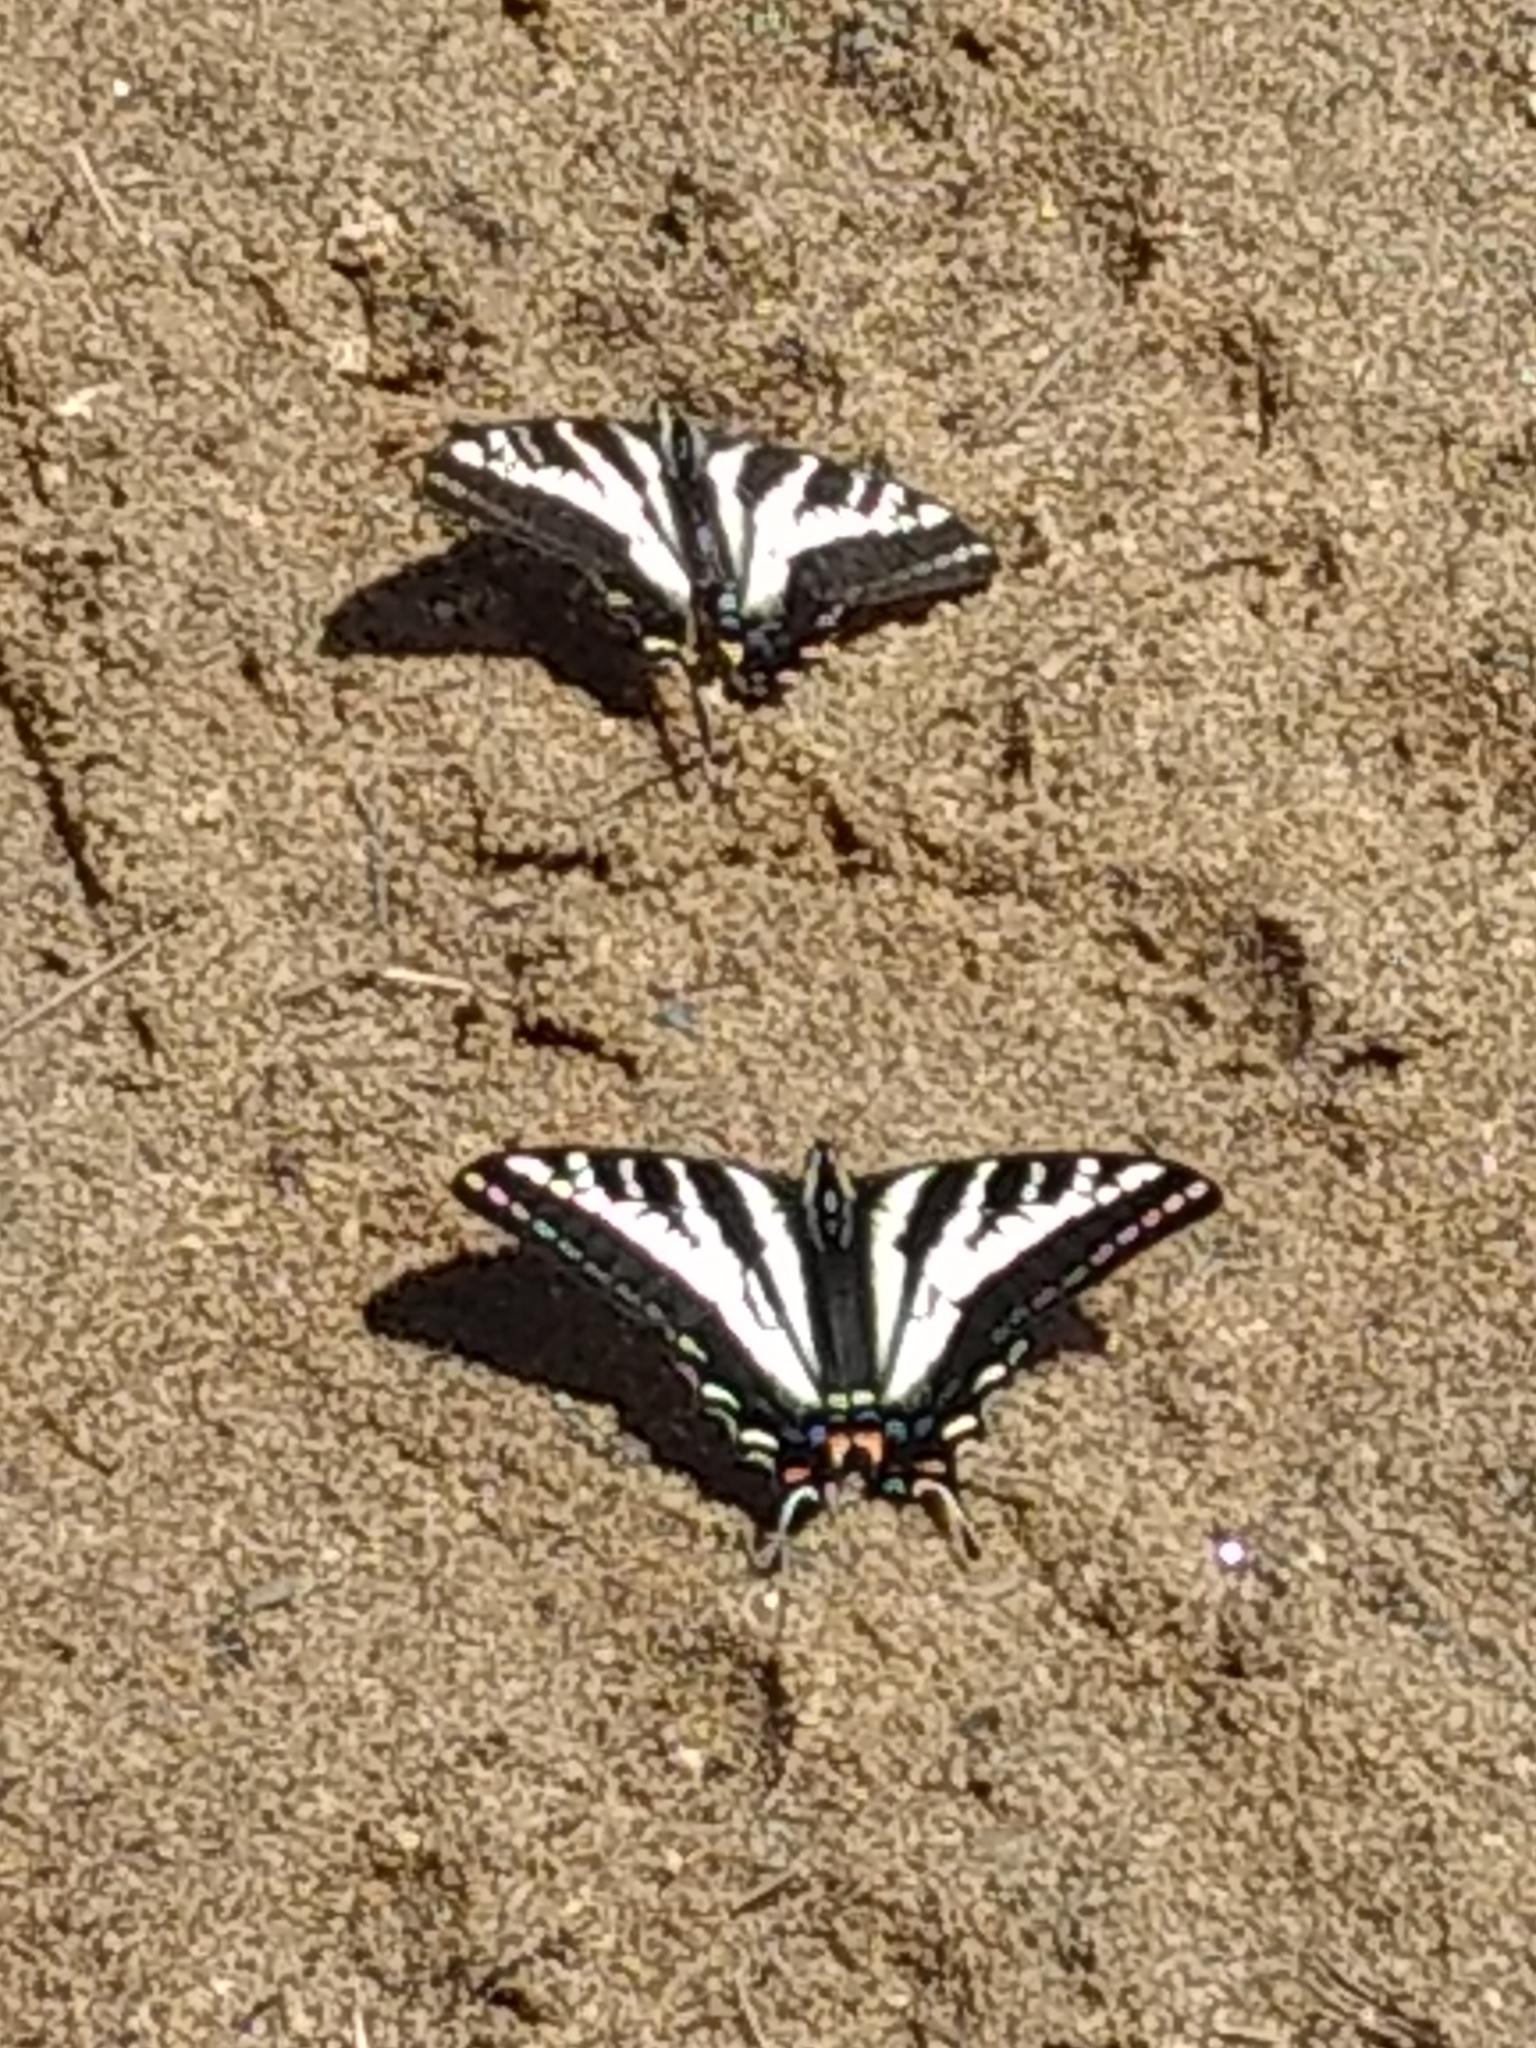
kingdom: Animalia
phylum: Arthropoda
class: Insecta
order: Lepidoptera
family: Papilionidae
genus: Papilio
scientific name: Papilio eurymedon
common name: Pale tiger swallowtail
